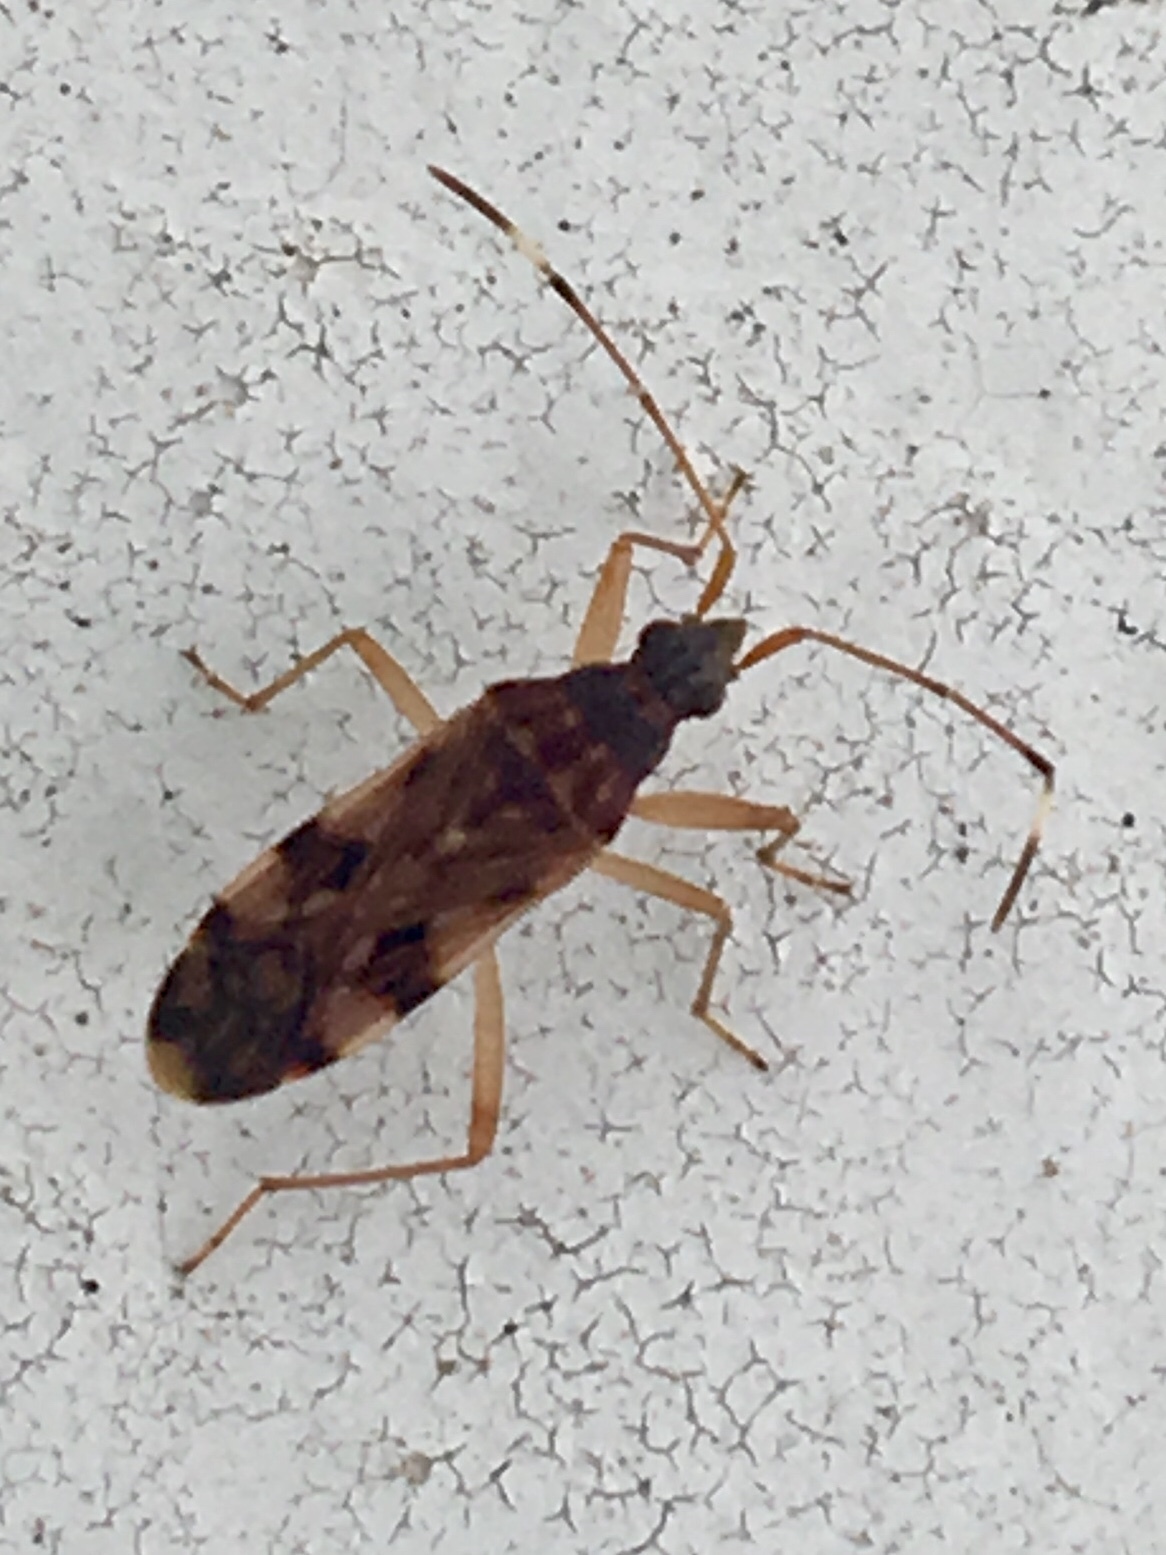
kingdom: Animalia
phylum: Arthropoda
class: Insecta
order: Hemiptera
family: Rhyparochromidae
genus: Ozophora
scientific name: Ozophora picturata
